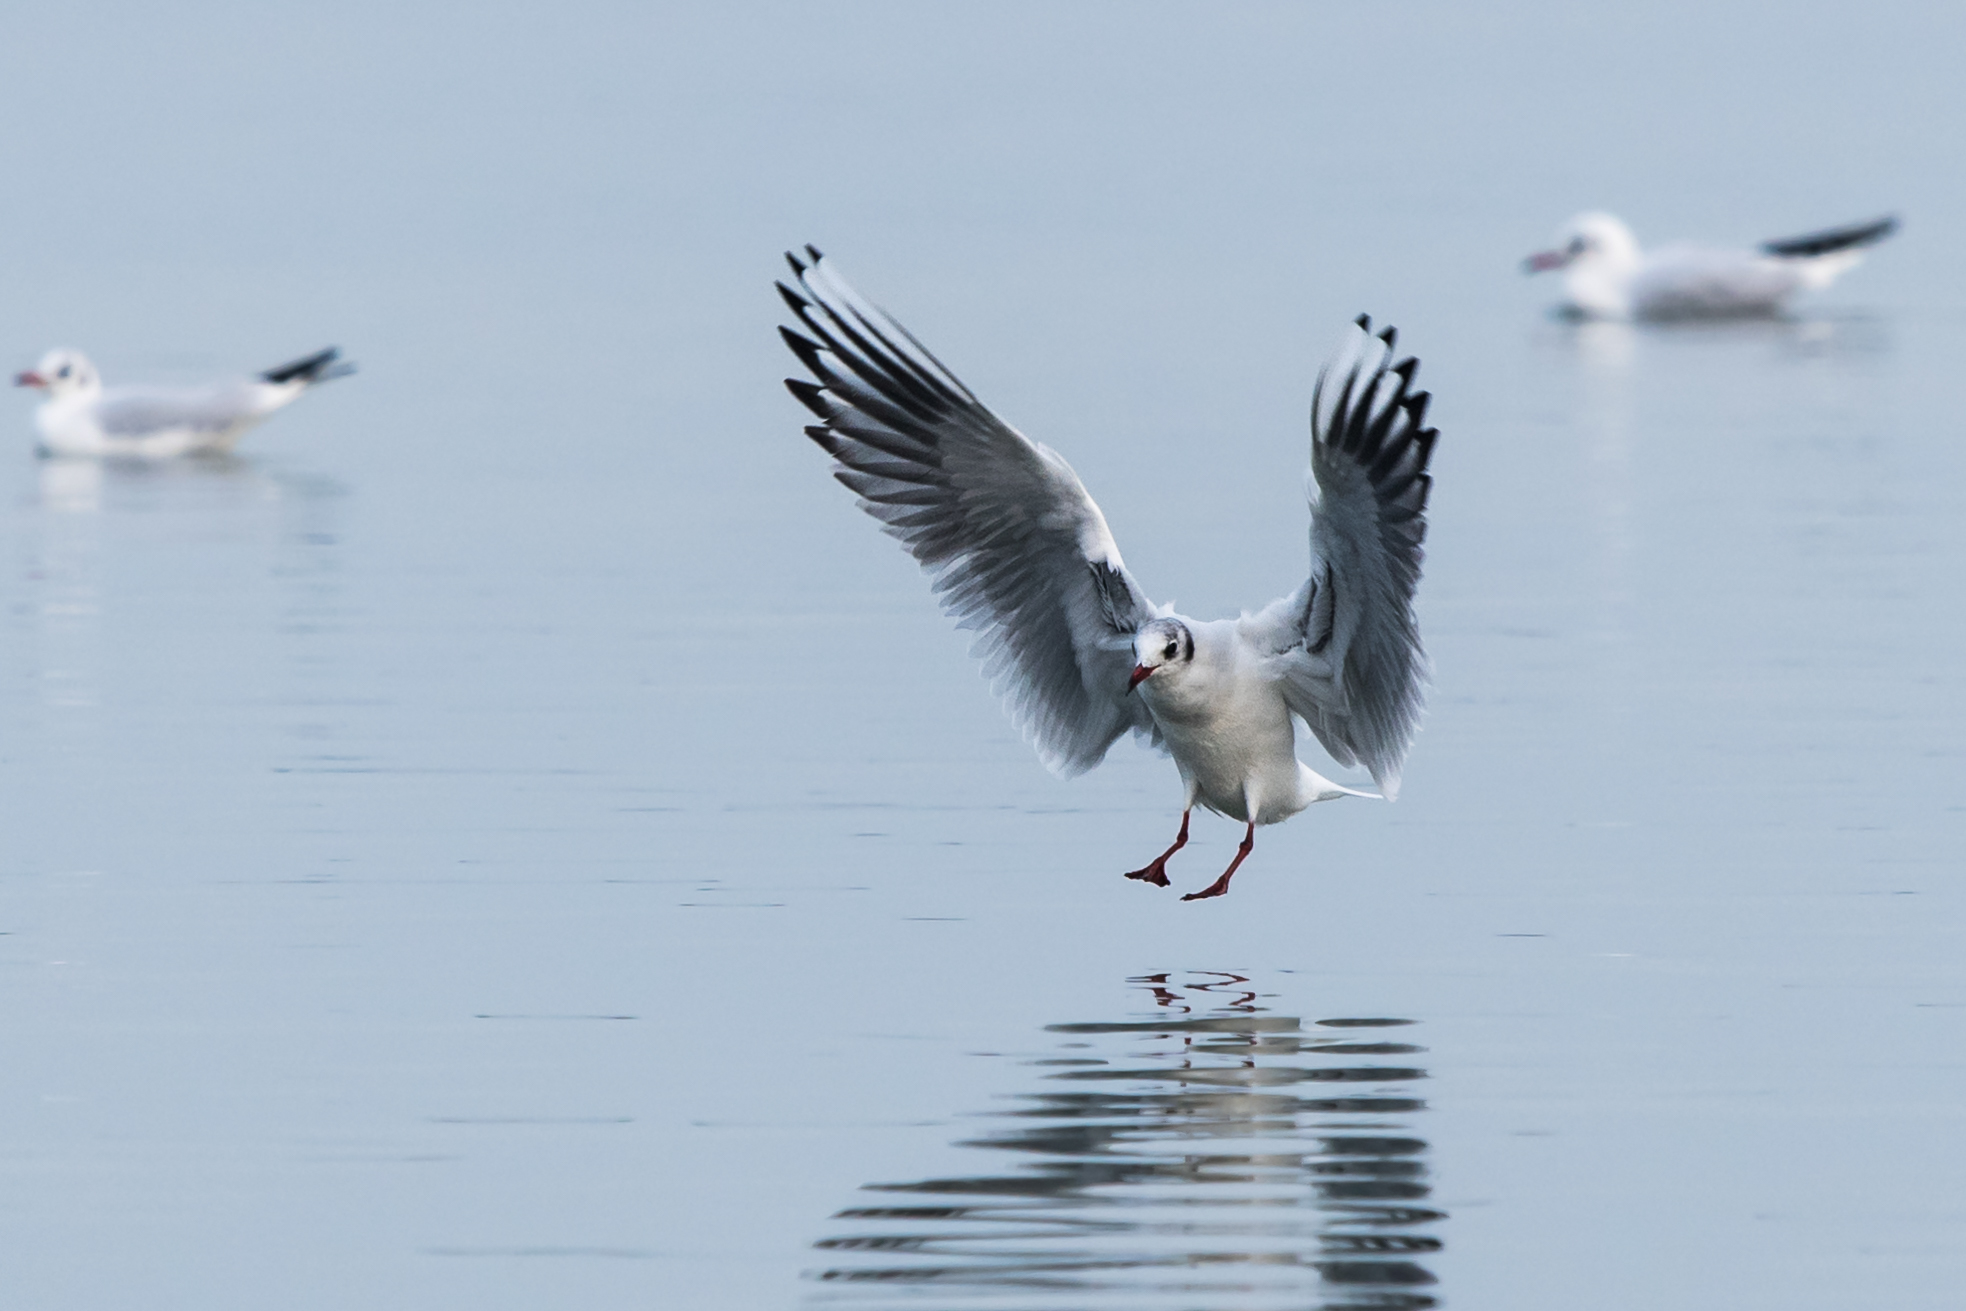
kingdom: Animalia
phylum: Chordata
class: Aves
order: Charadriiformes
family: Laridae
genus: Chroicocephalus
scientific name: Chroicocephalus ridibundus
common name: Black-headed gull
